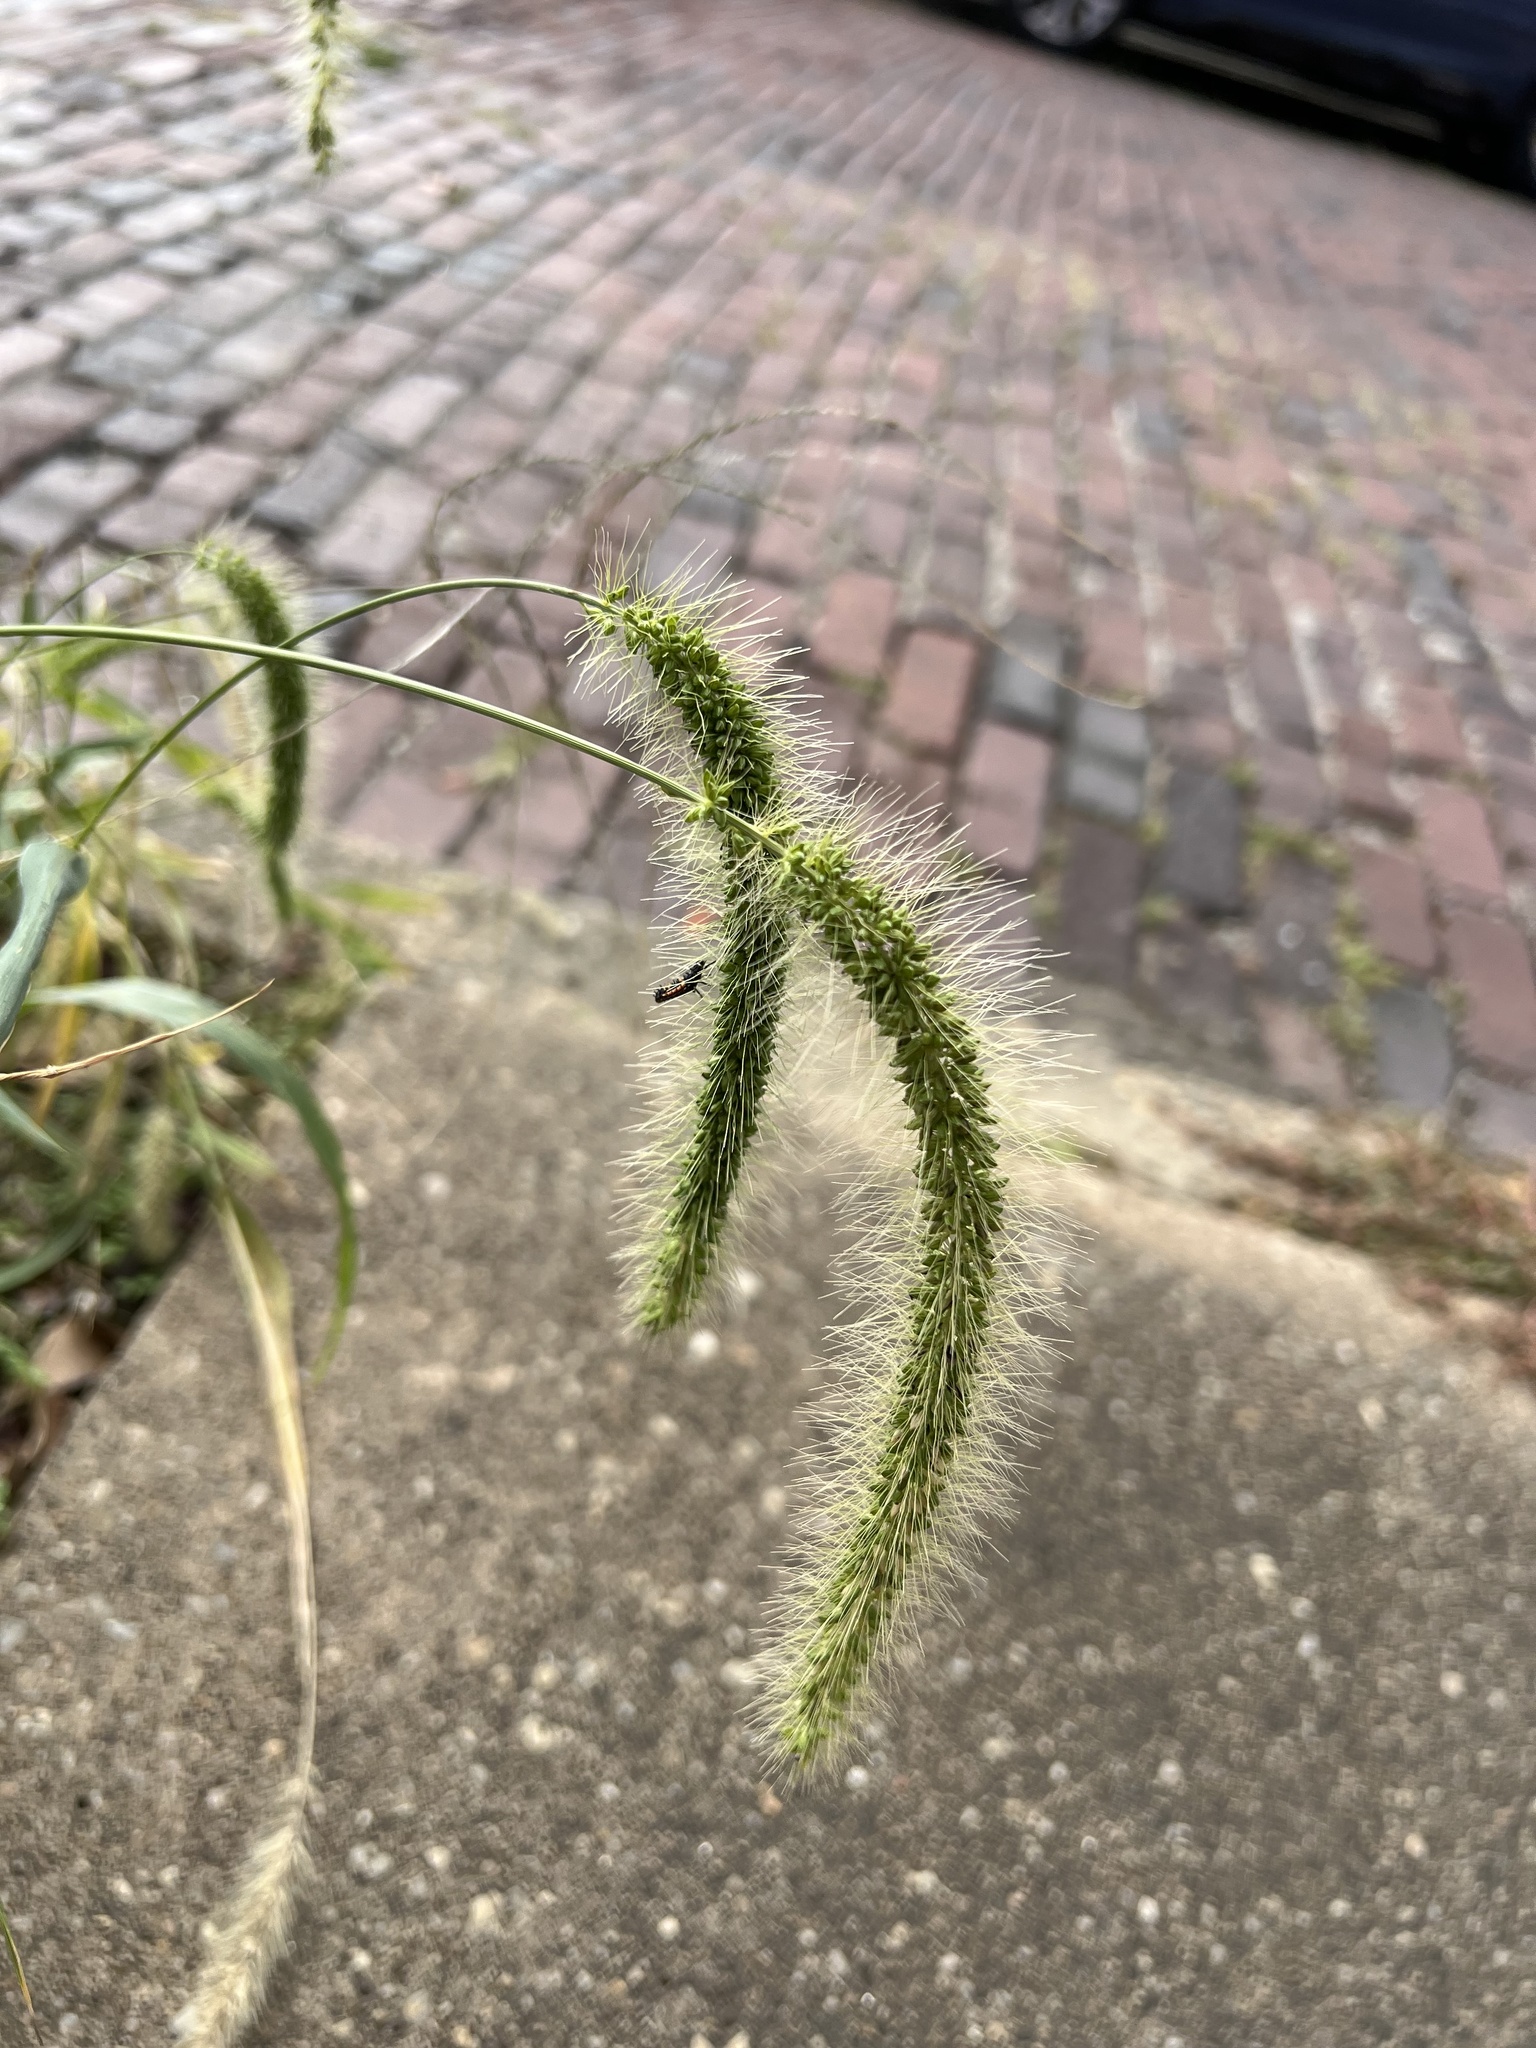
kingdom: Plantae
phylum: Tracheophyta
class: Liliopsida
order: Poales
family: Poaceae
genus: Setaria
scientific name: Setaria faberi
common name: Nodding bristle-grass
